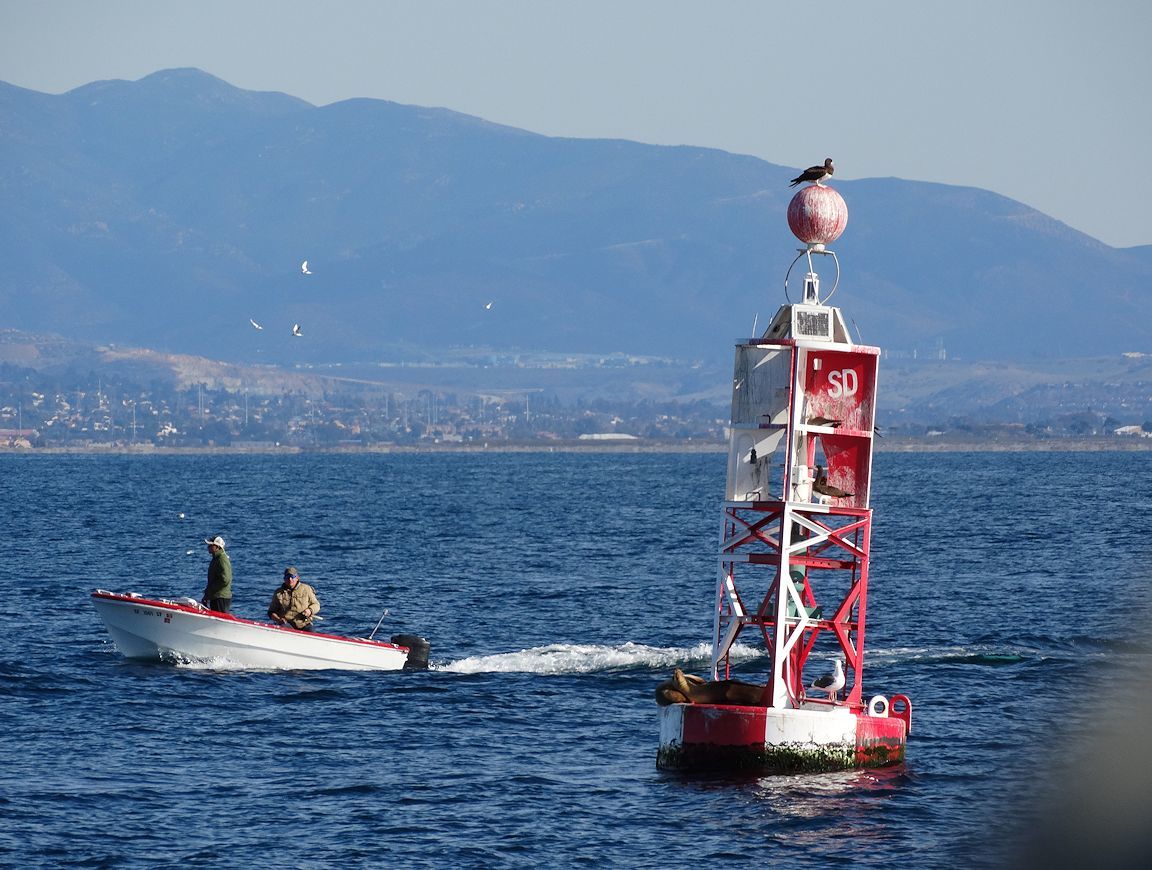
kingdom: Animalia
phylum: Chordata
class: Aves
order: Suliformes
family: Sulidae
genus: Sula
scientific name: Sula leucogaster
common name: Brown booby
